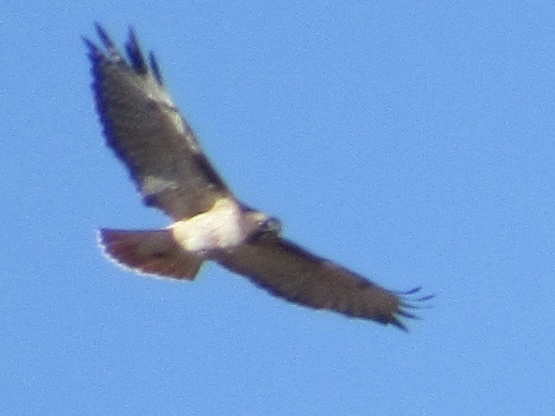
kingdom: Animalia
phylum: Chordata
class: Aves
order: Accipitriformes
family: Accipitridae
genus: Buteo
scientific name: Buteo jamaicensis
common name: Red-tailed hawk
